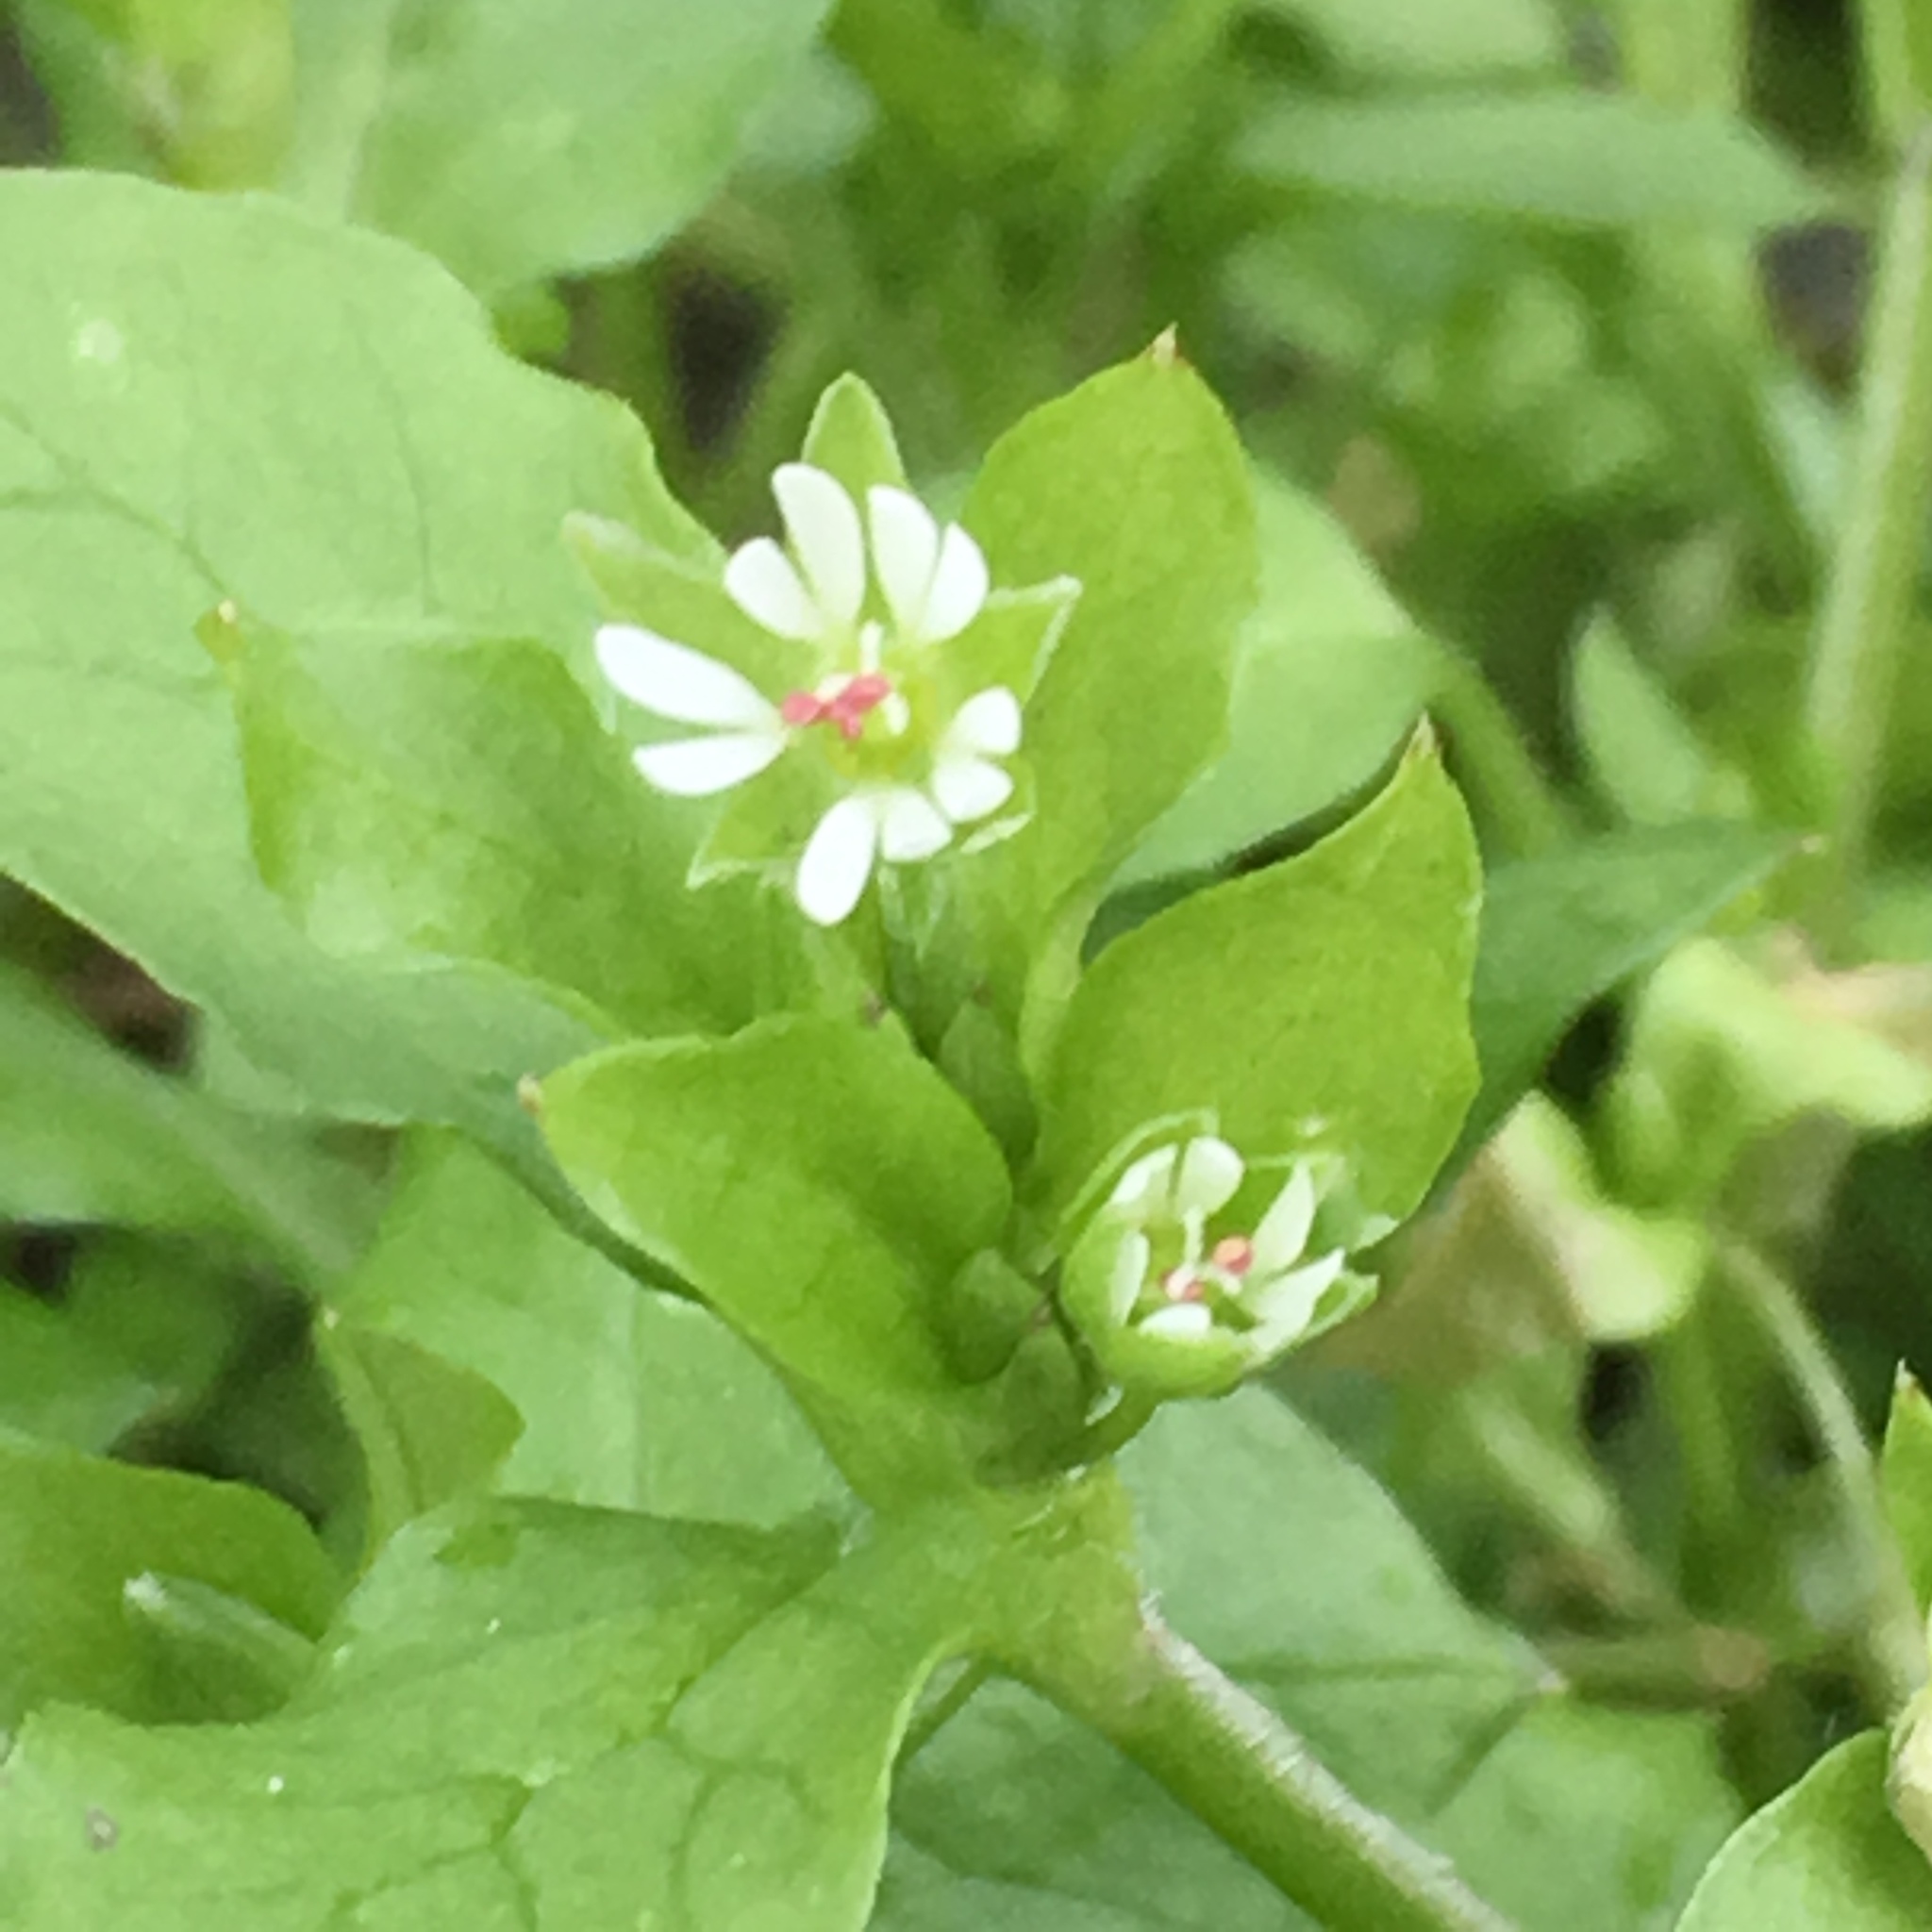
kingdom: Plantae
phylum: Tracheophyta
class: Magnoliopsida
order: Caryophyllales
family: Caryophyllaceae
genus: Stellaria
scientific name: Stellaria media
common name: Common chickweed
